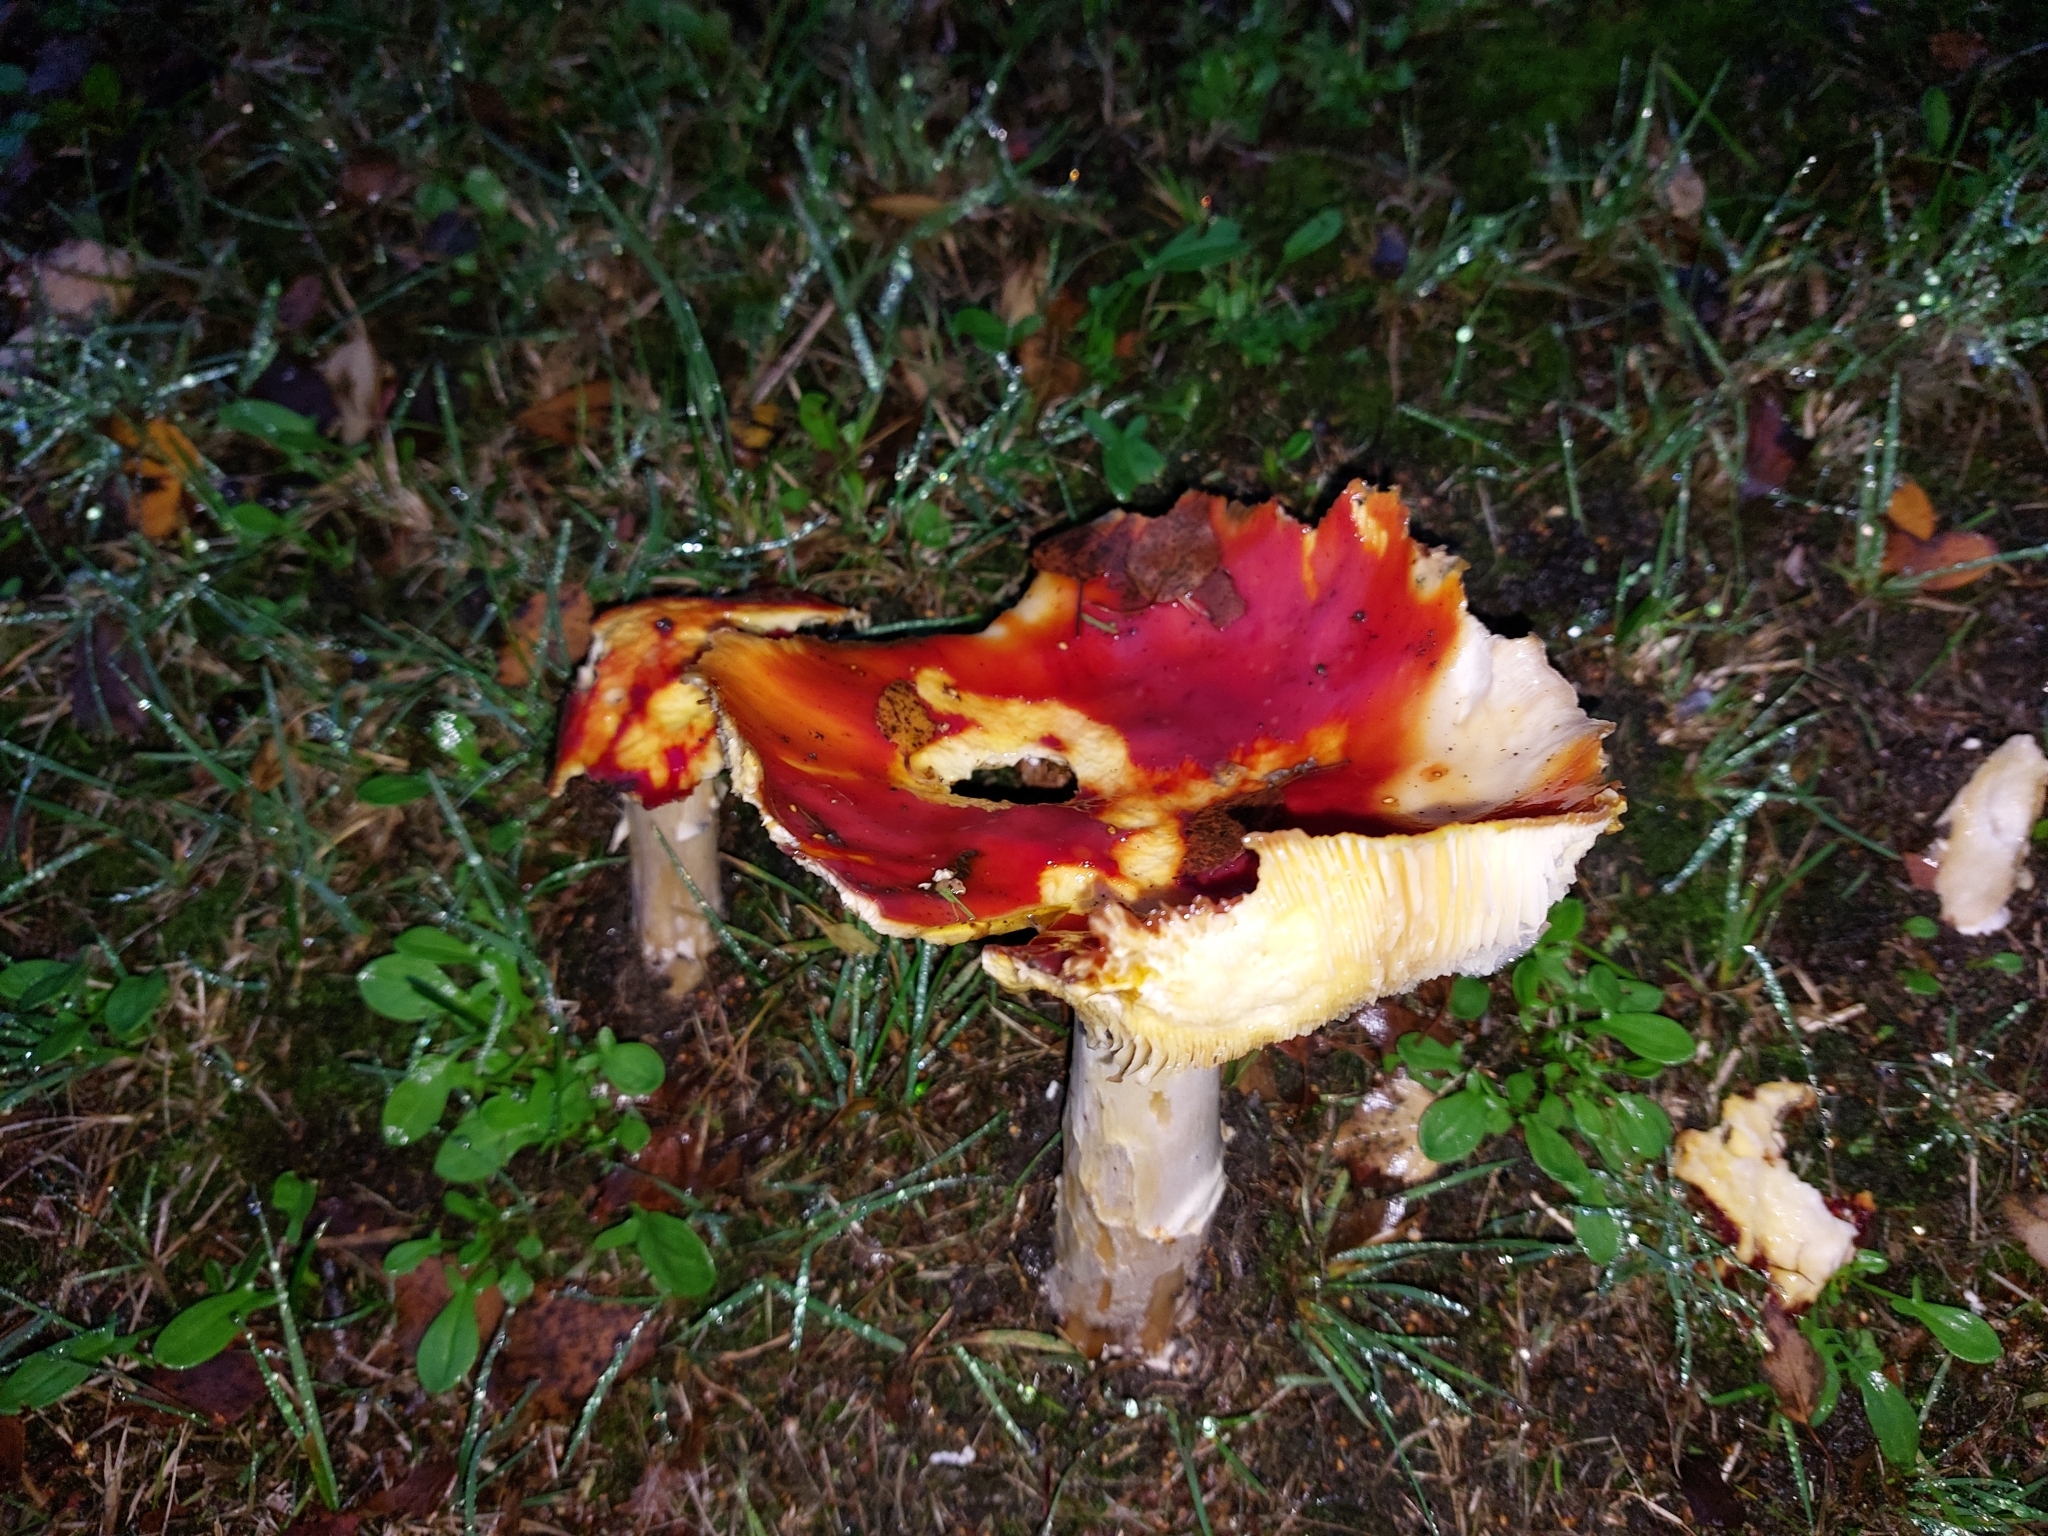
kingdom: Fungi
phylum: Basidiomycota
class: Agaricomycetes
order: Agaricales
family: Amanitaceae
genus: Amanita
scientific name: Amanita muscaria
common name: Fly agaric
